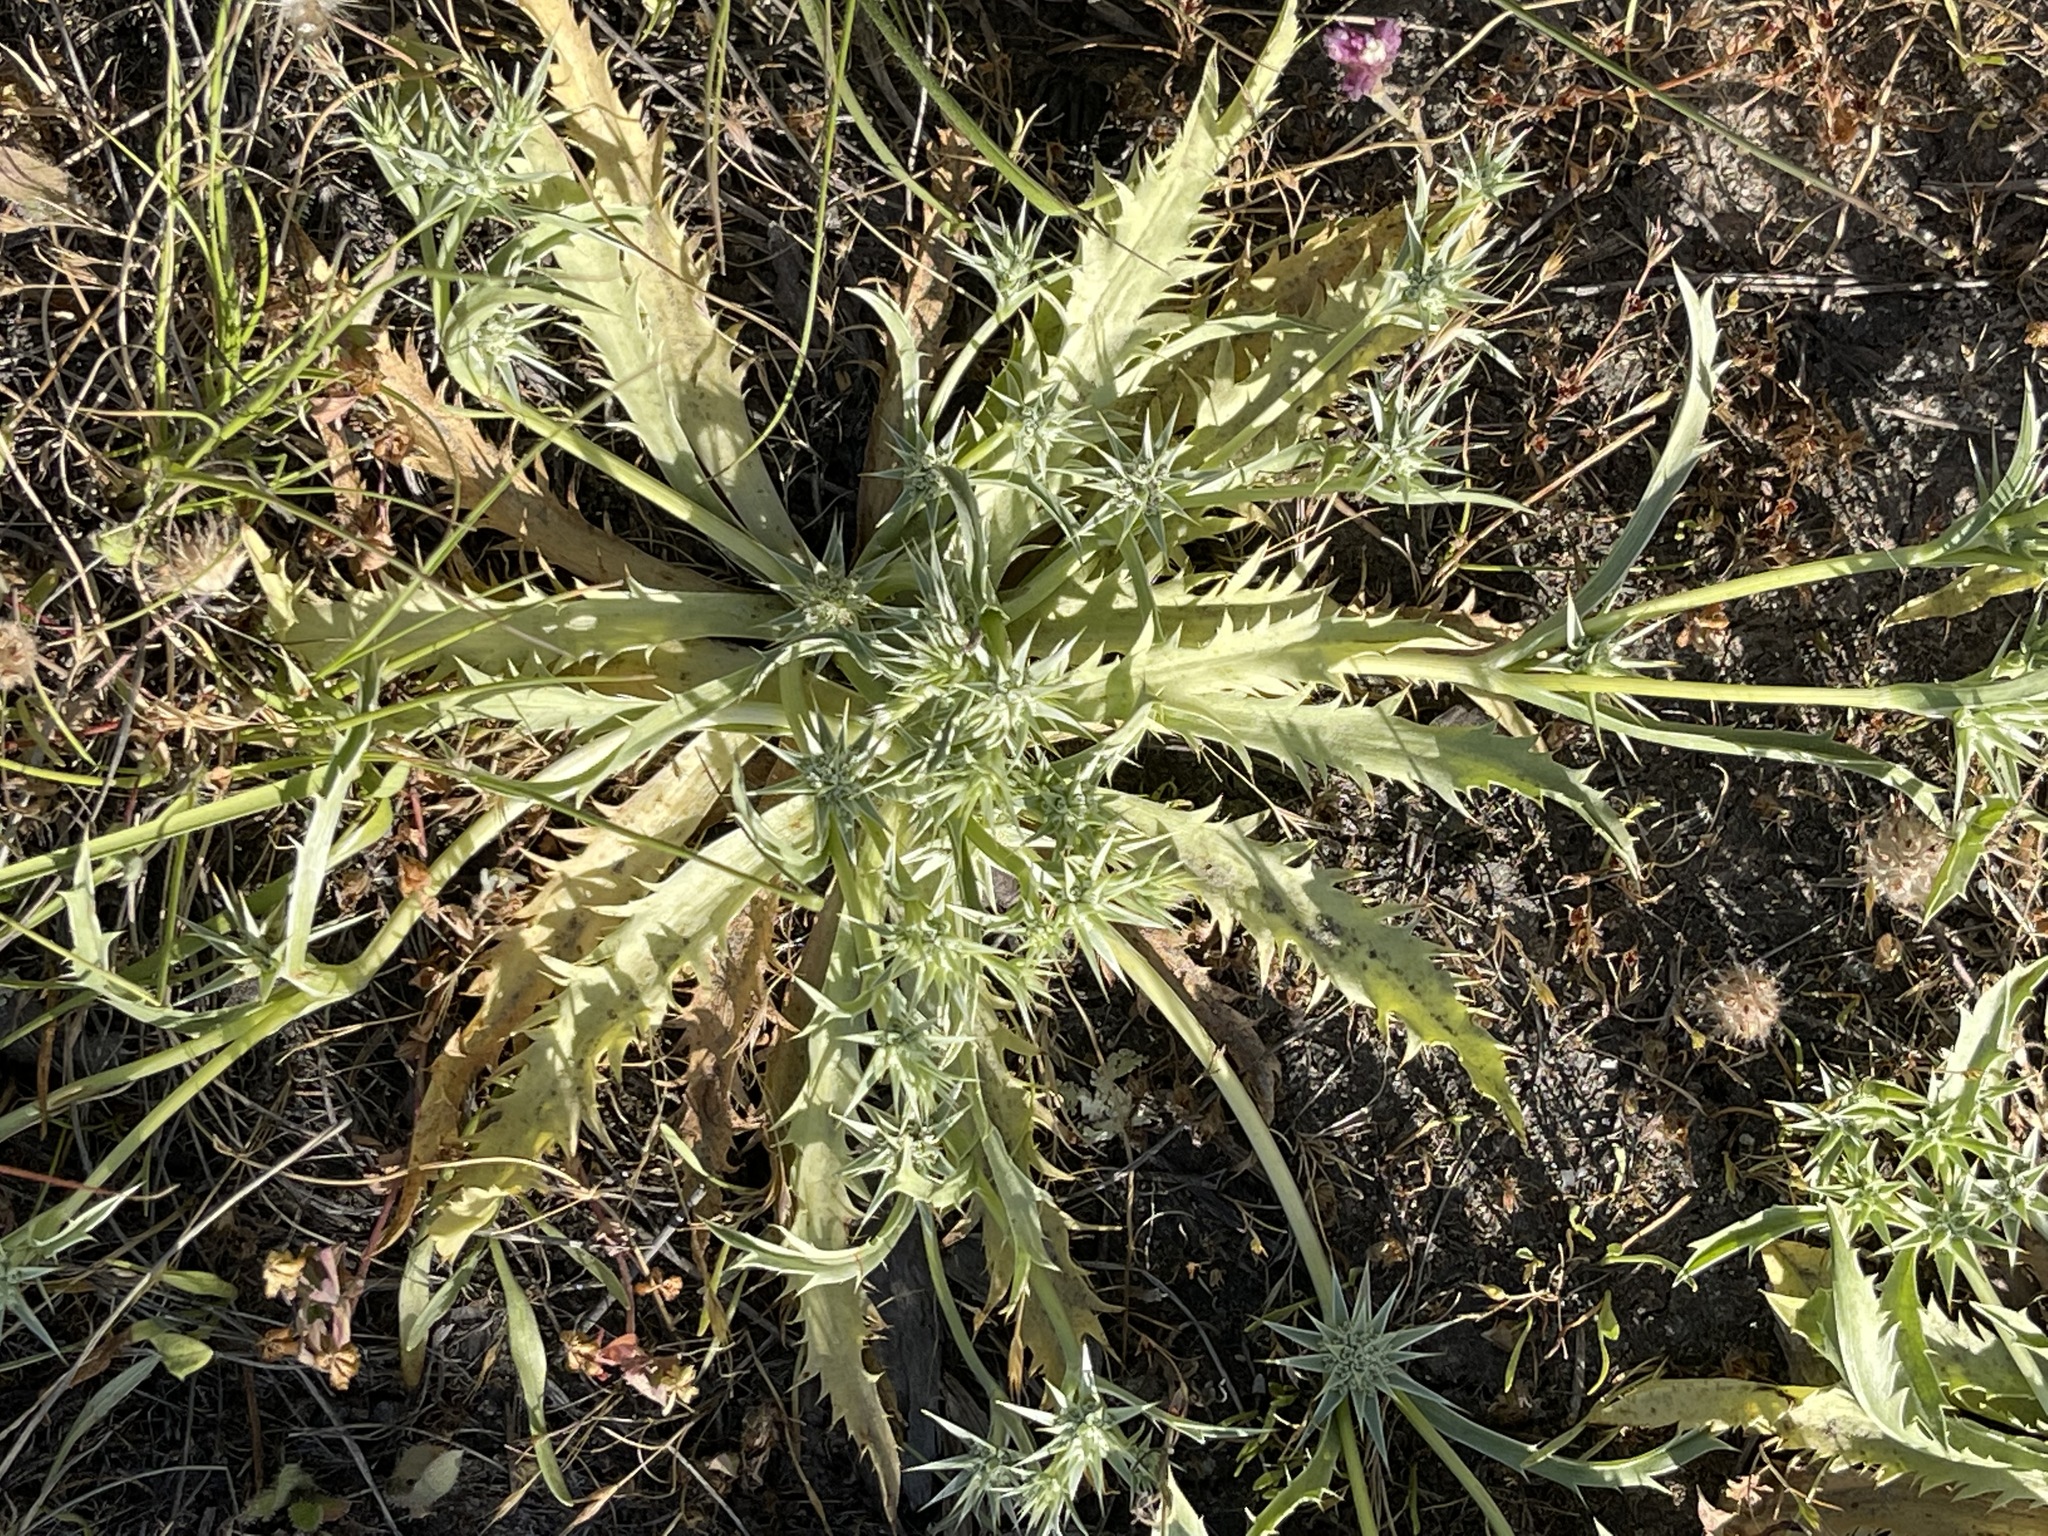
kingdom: Plantae
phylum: Tracheophyta
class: Magnoliopsida
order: Apiales
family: Apiaceae
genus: Eryngium
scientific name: Eryngium armatum
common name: Coyote thistle
